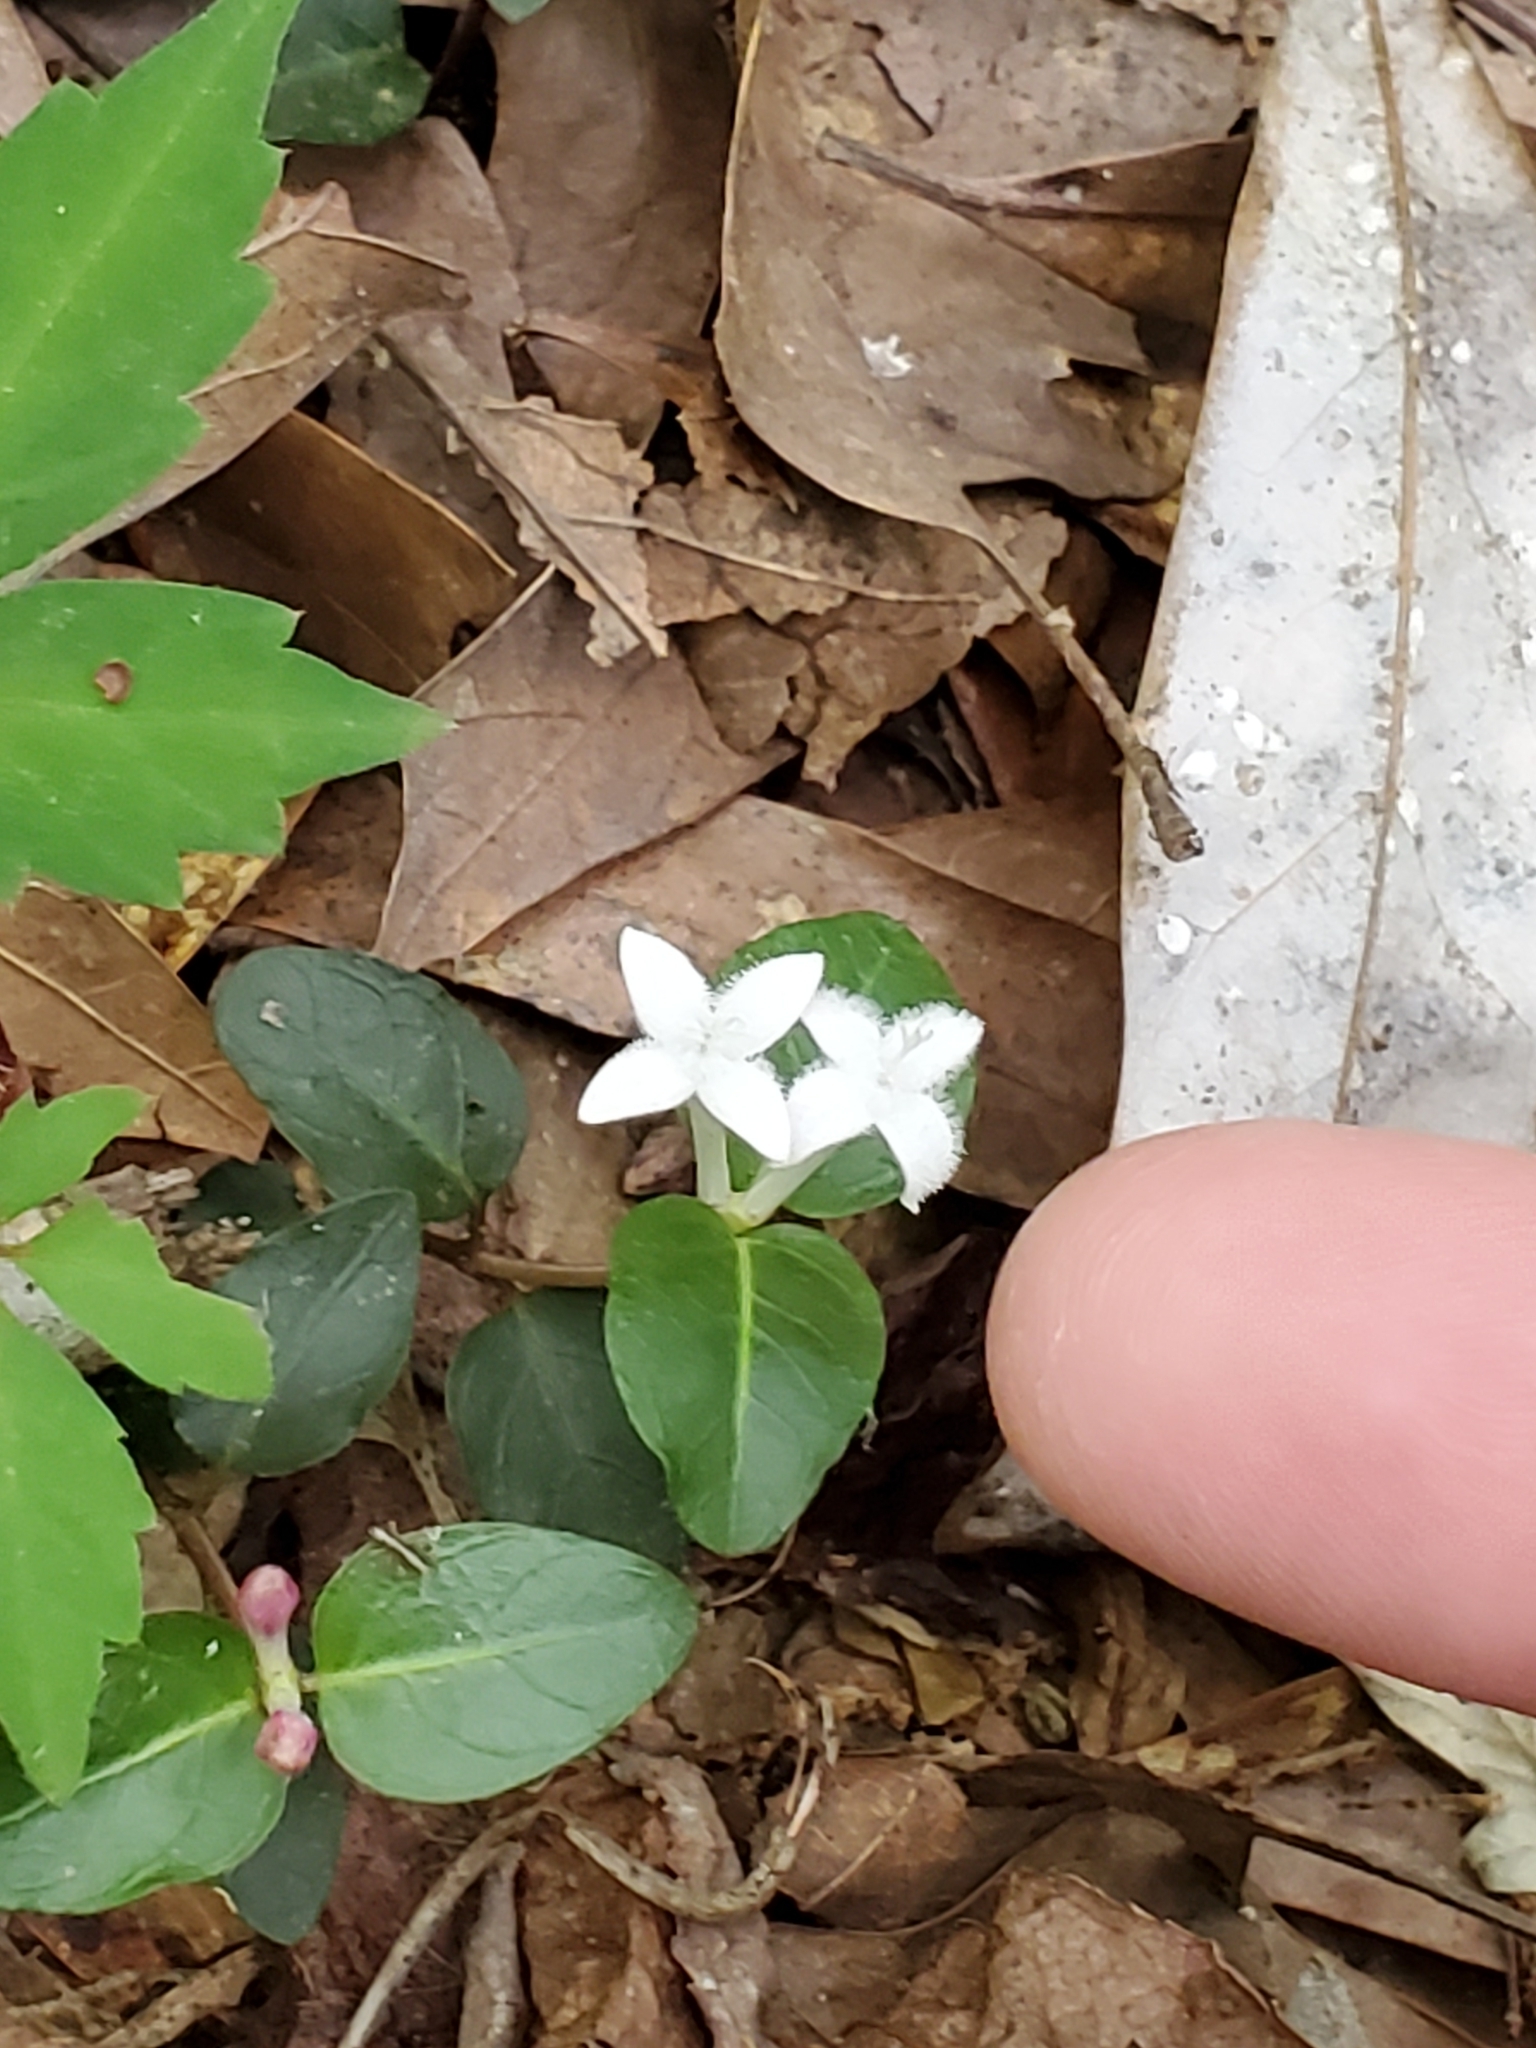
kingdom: Plantae
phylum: Tracheophyta
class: Magnoliopsida
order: Gentianales
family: Rubiaceae
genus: Mitchella
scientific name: Mitchella repens
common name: Partridge-berry
